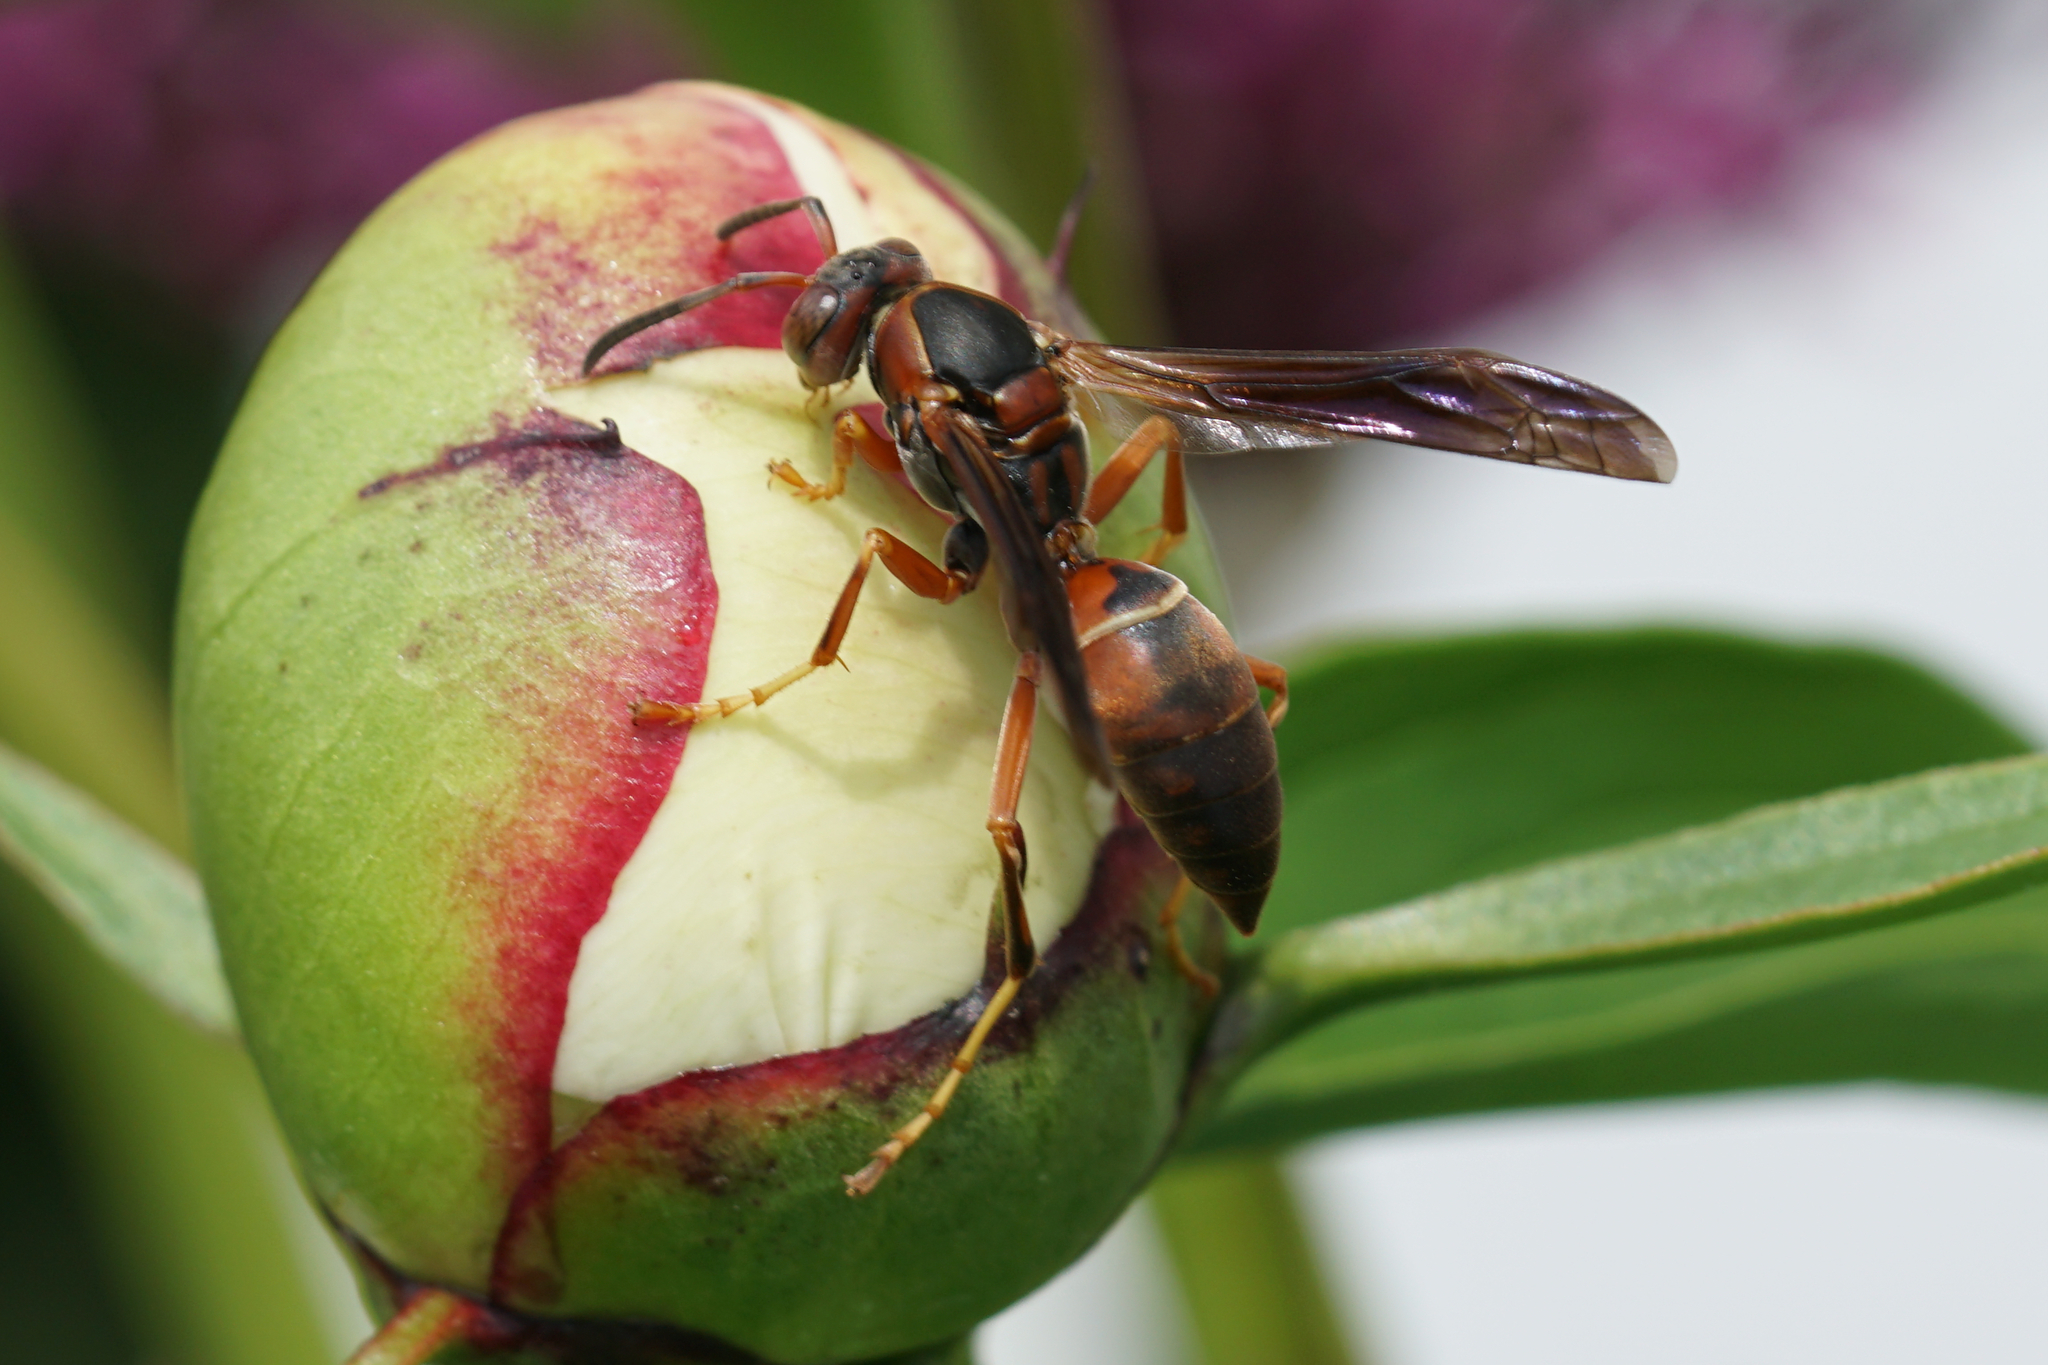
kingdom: Animalia
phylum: Arthropoda
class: Insecta
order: Hymenoptera
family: Eumenidae
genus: Polistes
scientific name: Polistes fuscatus
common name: Dark paper wasp
